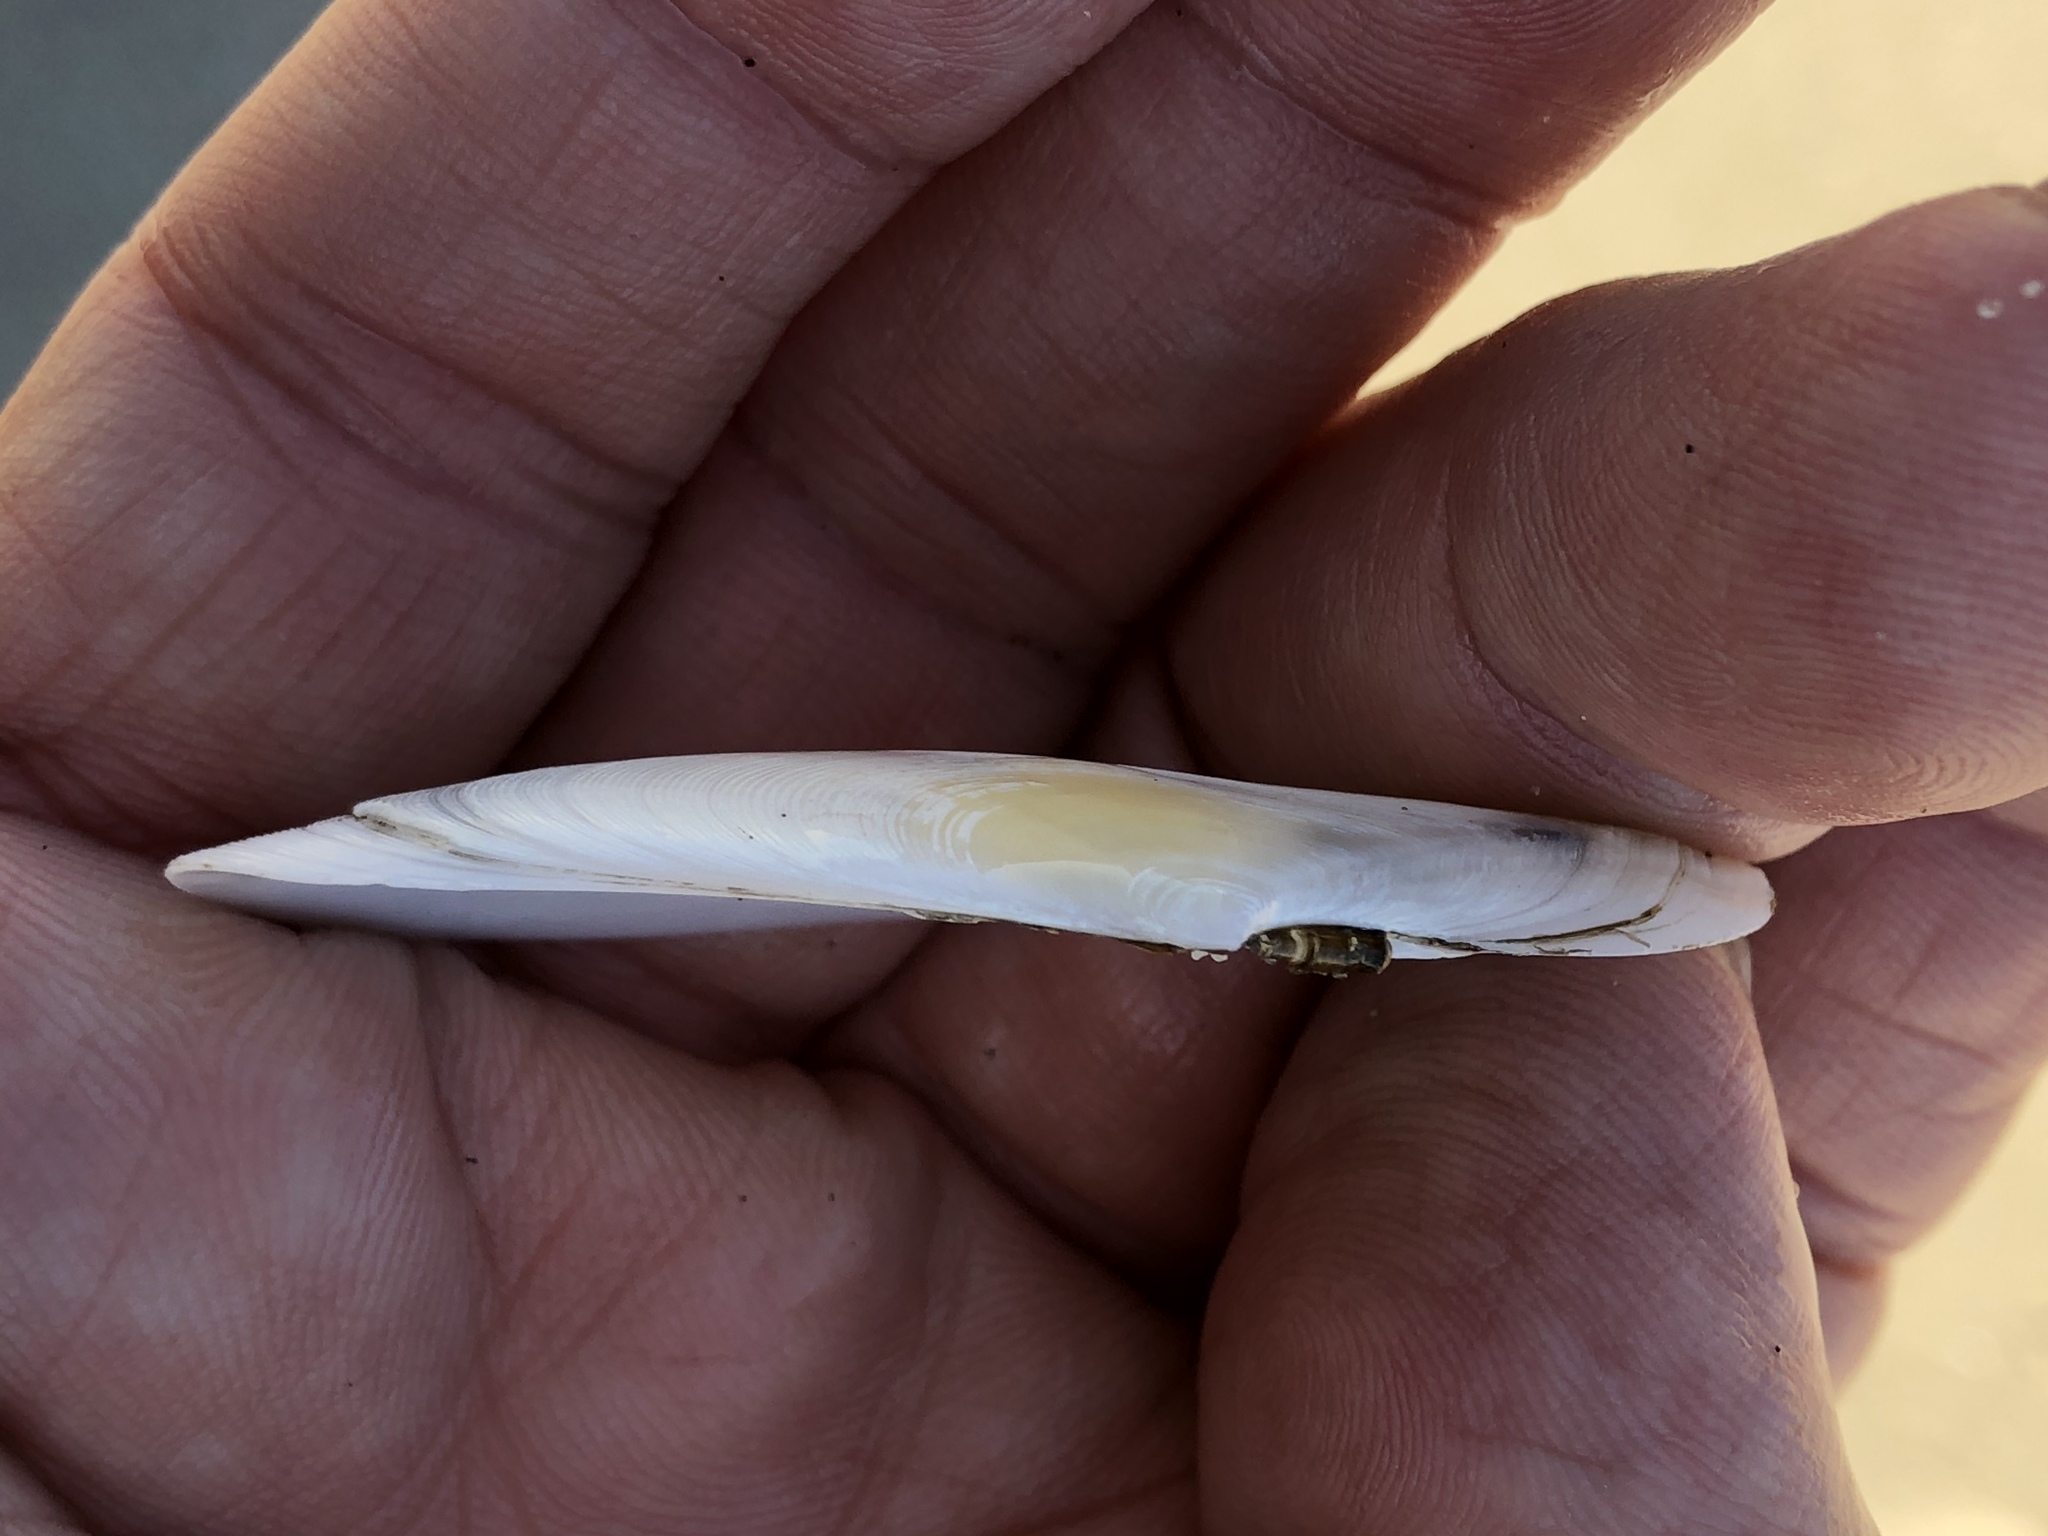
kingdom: Animalia
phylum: Mollusca
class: Bivalvia
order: Cardiida
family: Tellinidae
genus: Megangulus
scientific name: Megangulus bodegensis
